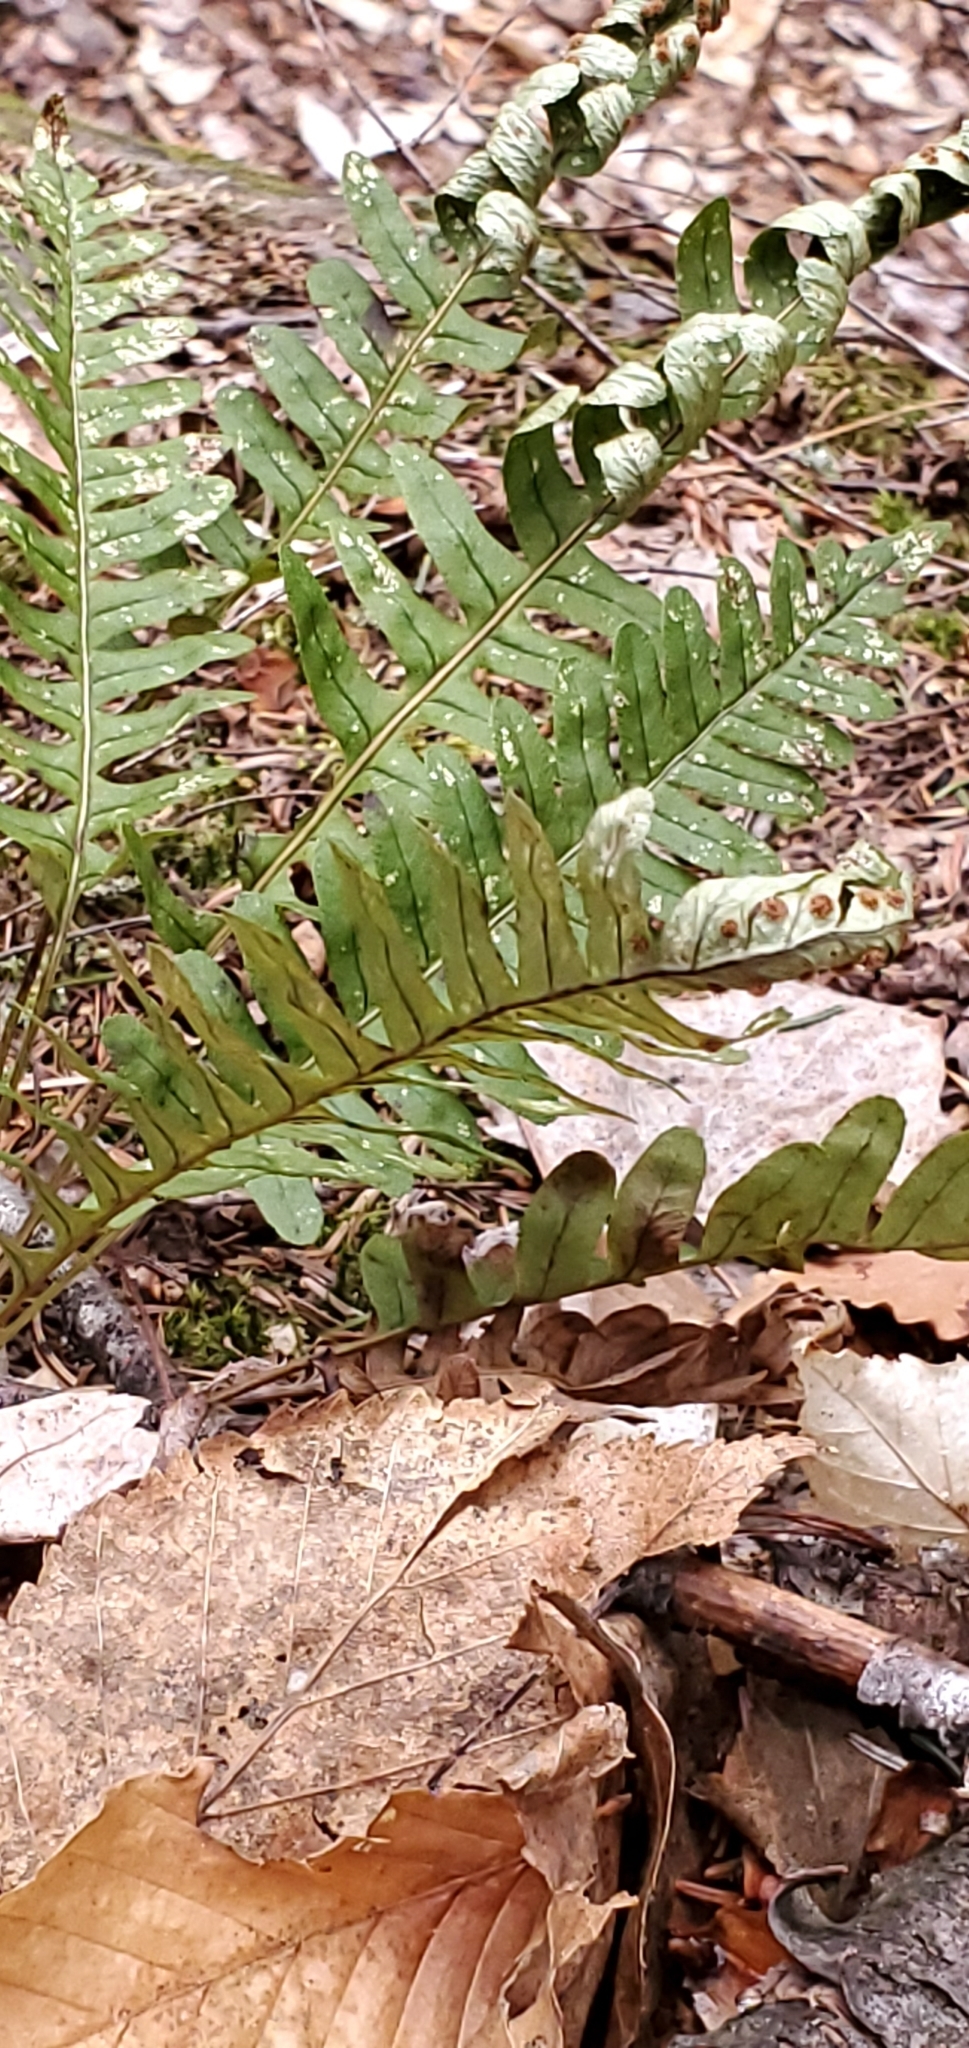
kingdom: Plantae
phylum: Tracheophyta
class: Polypodiopsida
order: Polypodiales
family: Polypodiaceae
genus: Polypodium
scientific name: Polypodium virginianum
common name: American wall fern
